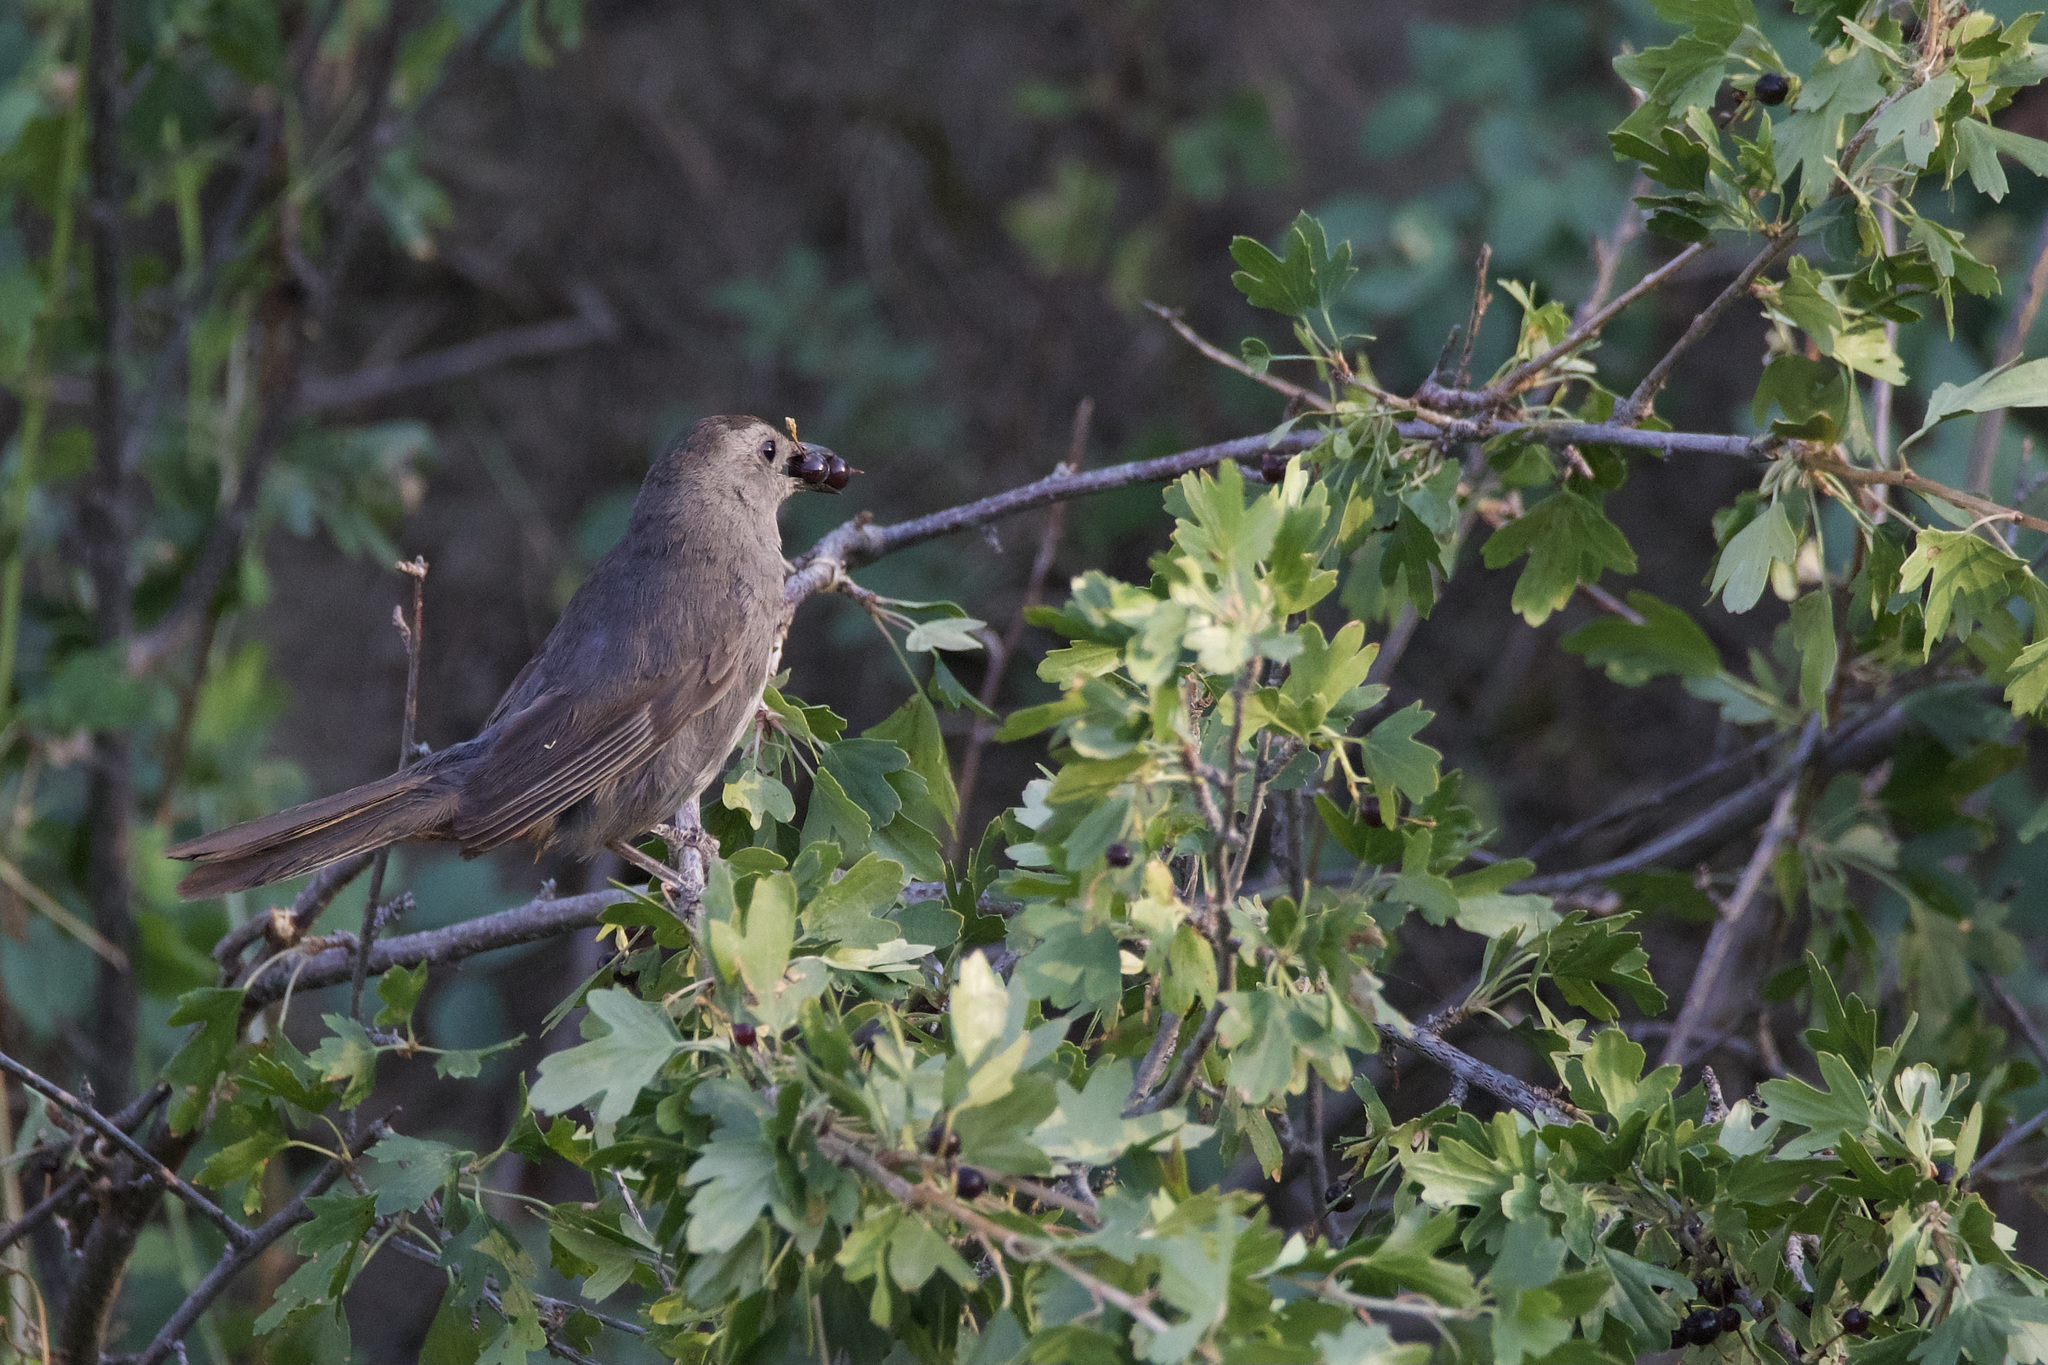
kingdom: Animalia
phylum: Chordata
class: Aves
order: Passeriformes
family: Mimidae
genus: Dumetella
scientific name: Dumetella carolinensis
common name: Gray catbird
